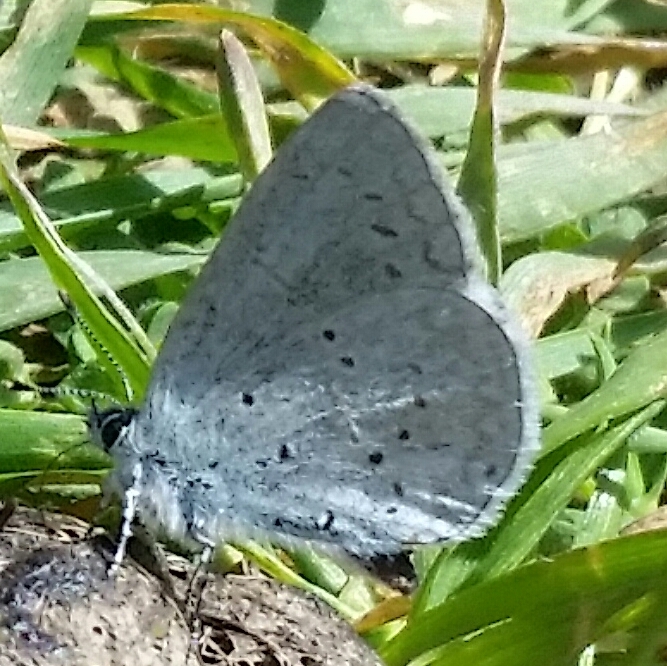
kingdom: Animalia
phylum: Arthropoda
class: Insecta
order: Lepidoptera
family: Lycaenidae
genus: Celastrina
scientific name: Celastrina ladon
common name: Spring azure
